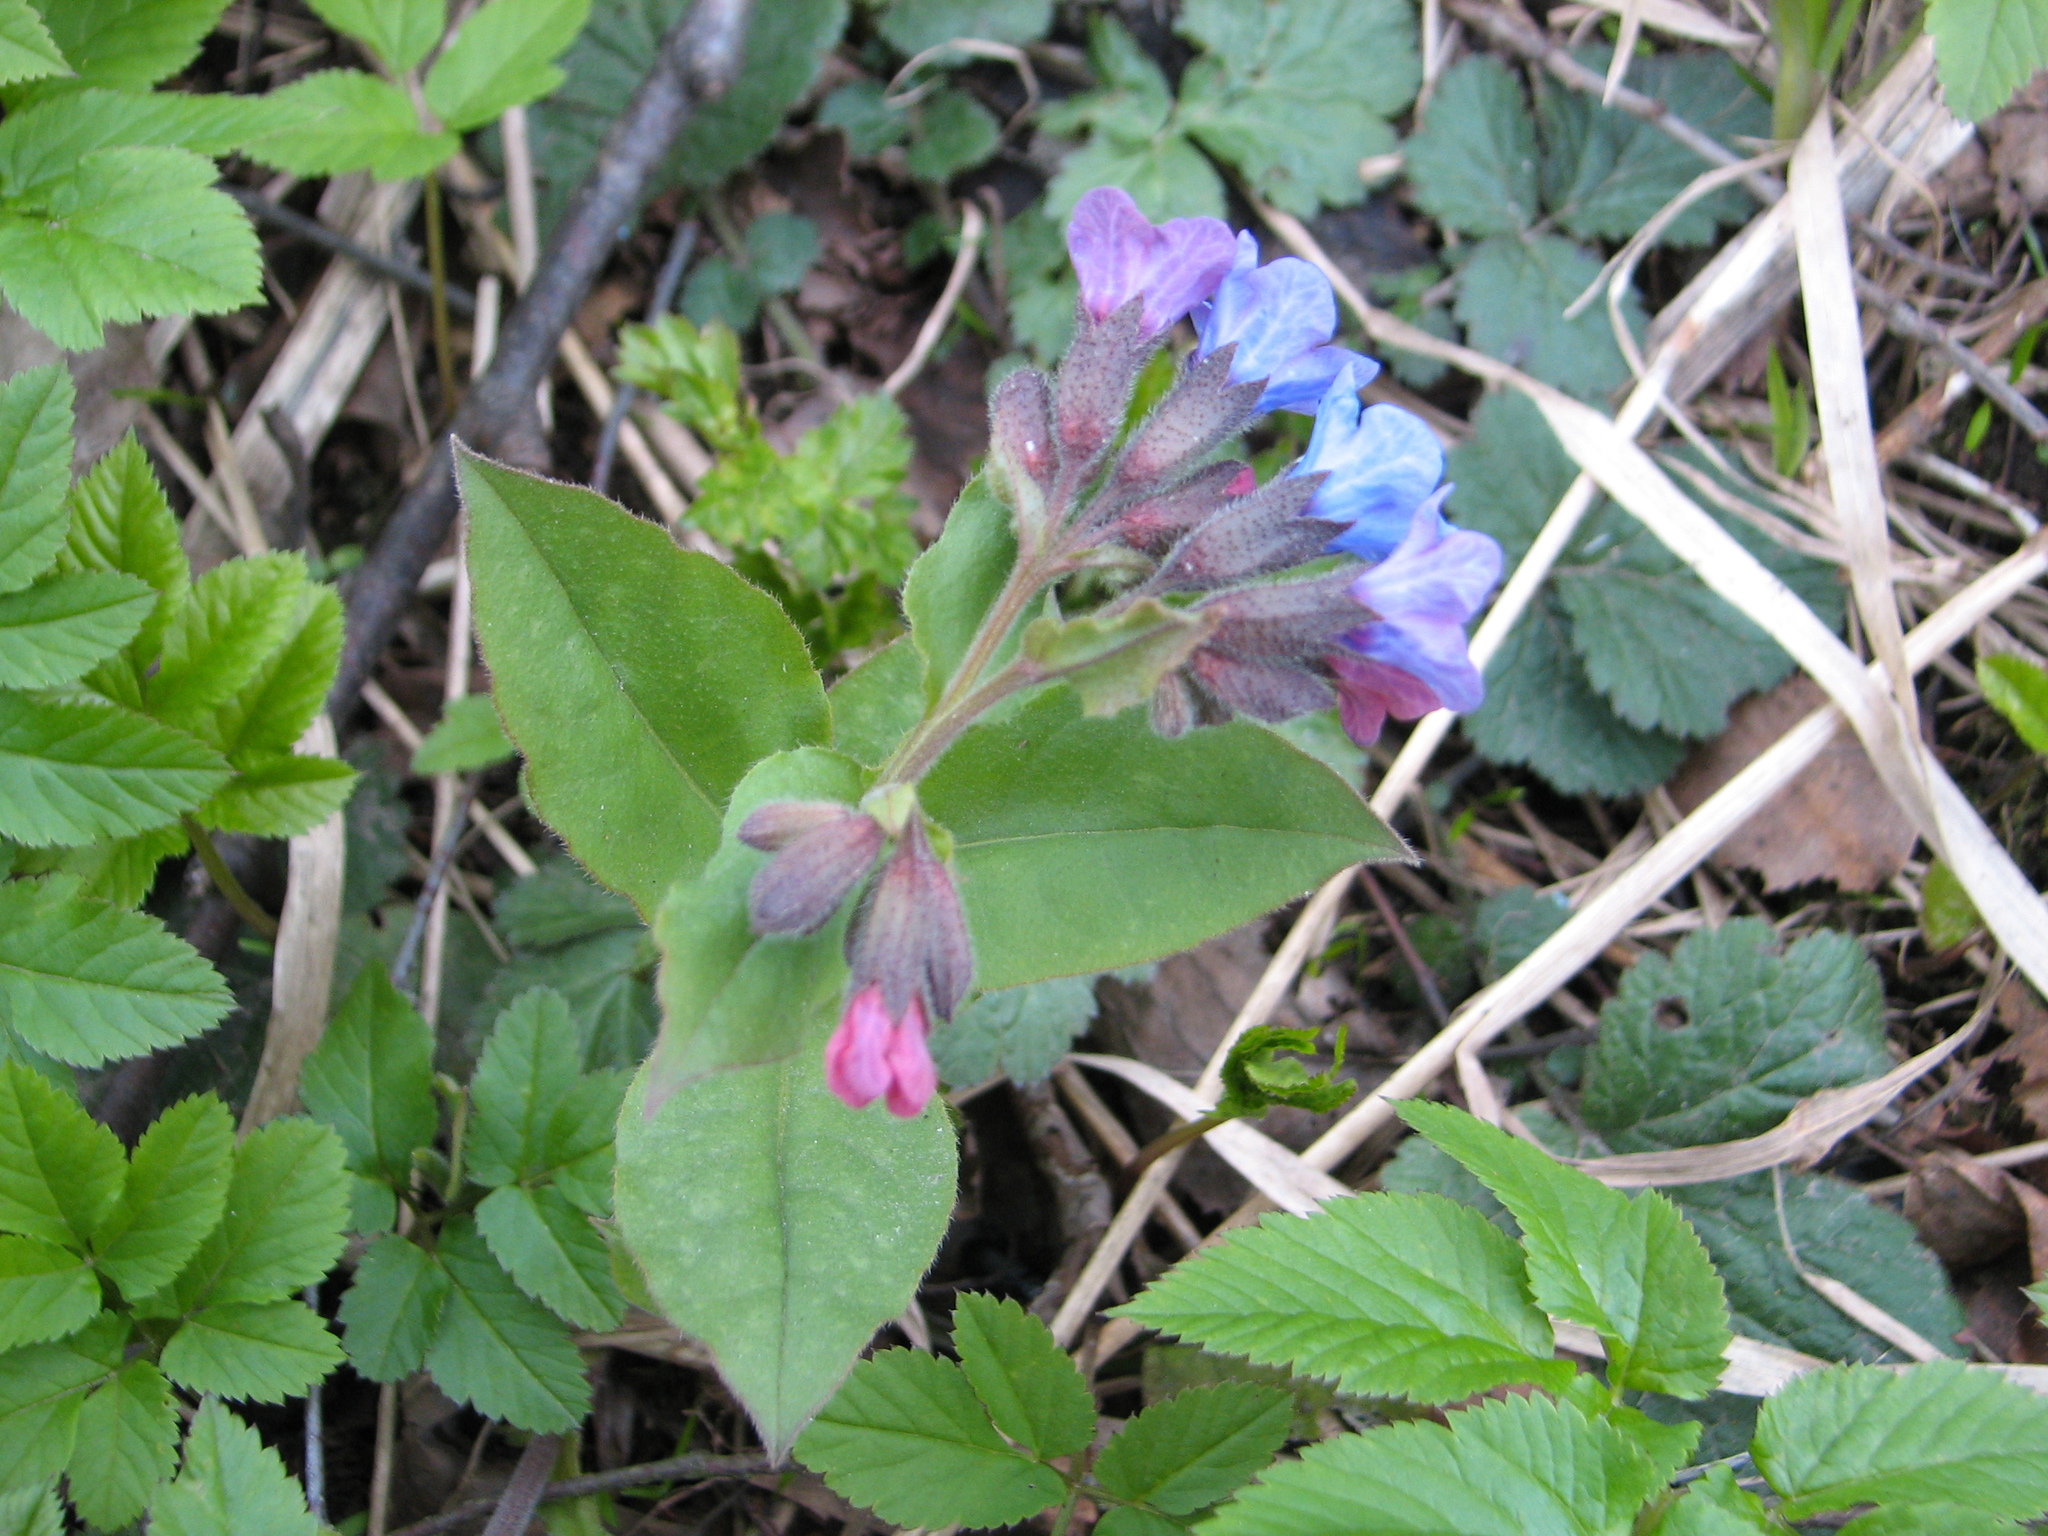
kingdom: Plantae
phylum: Tracheophyta
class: Magnoliopsida
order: Boraginales
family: Boraginaceae
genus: Pulmonaria
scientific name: Pulmonaria obscura
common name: Suffolk lungwort
